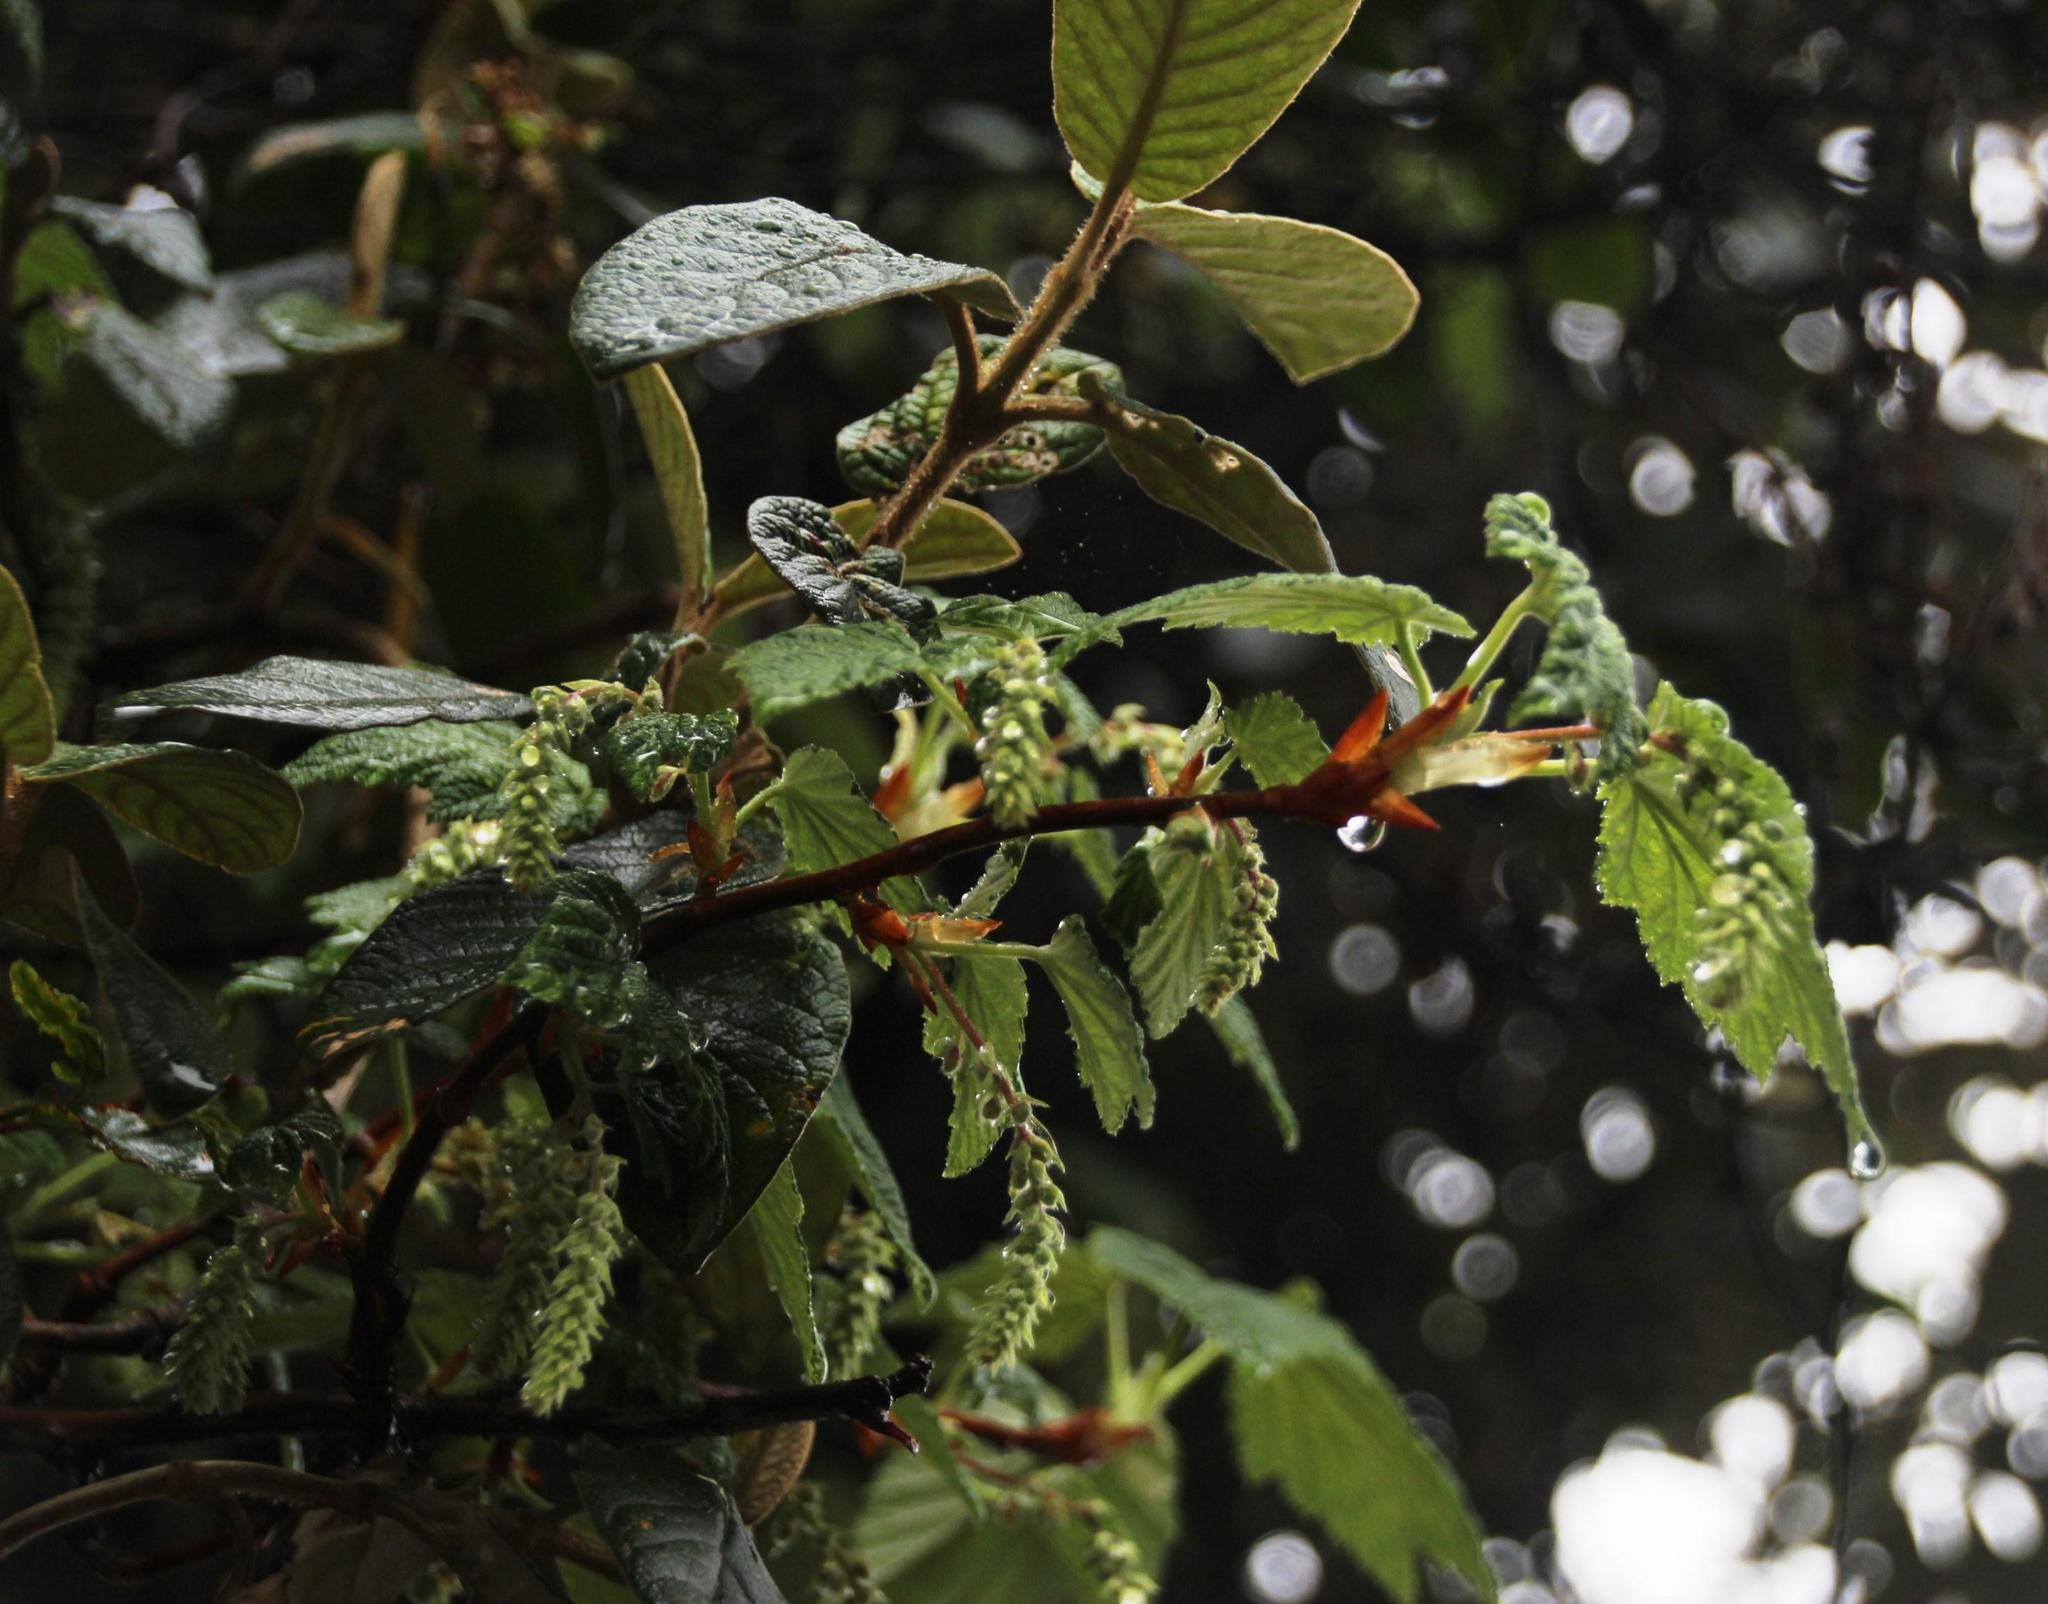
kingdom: Plantae
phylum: Tracheophyta
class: Magnoliopsida
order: Fagales
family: Betulaceae
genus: Alnus
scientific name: Alnus acuminata
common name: Alder
